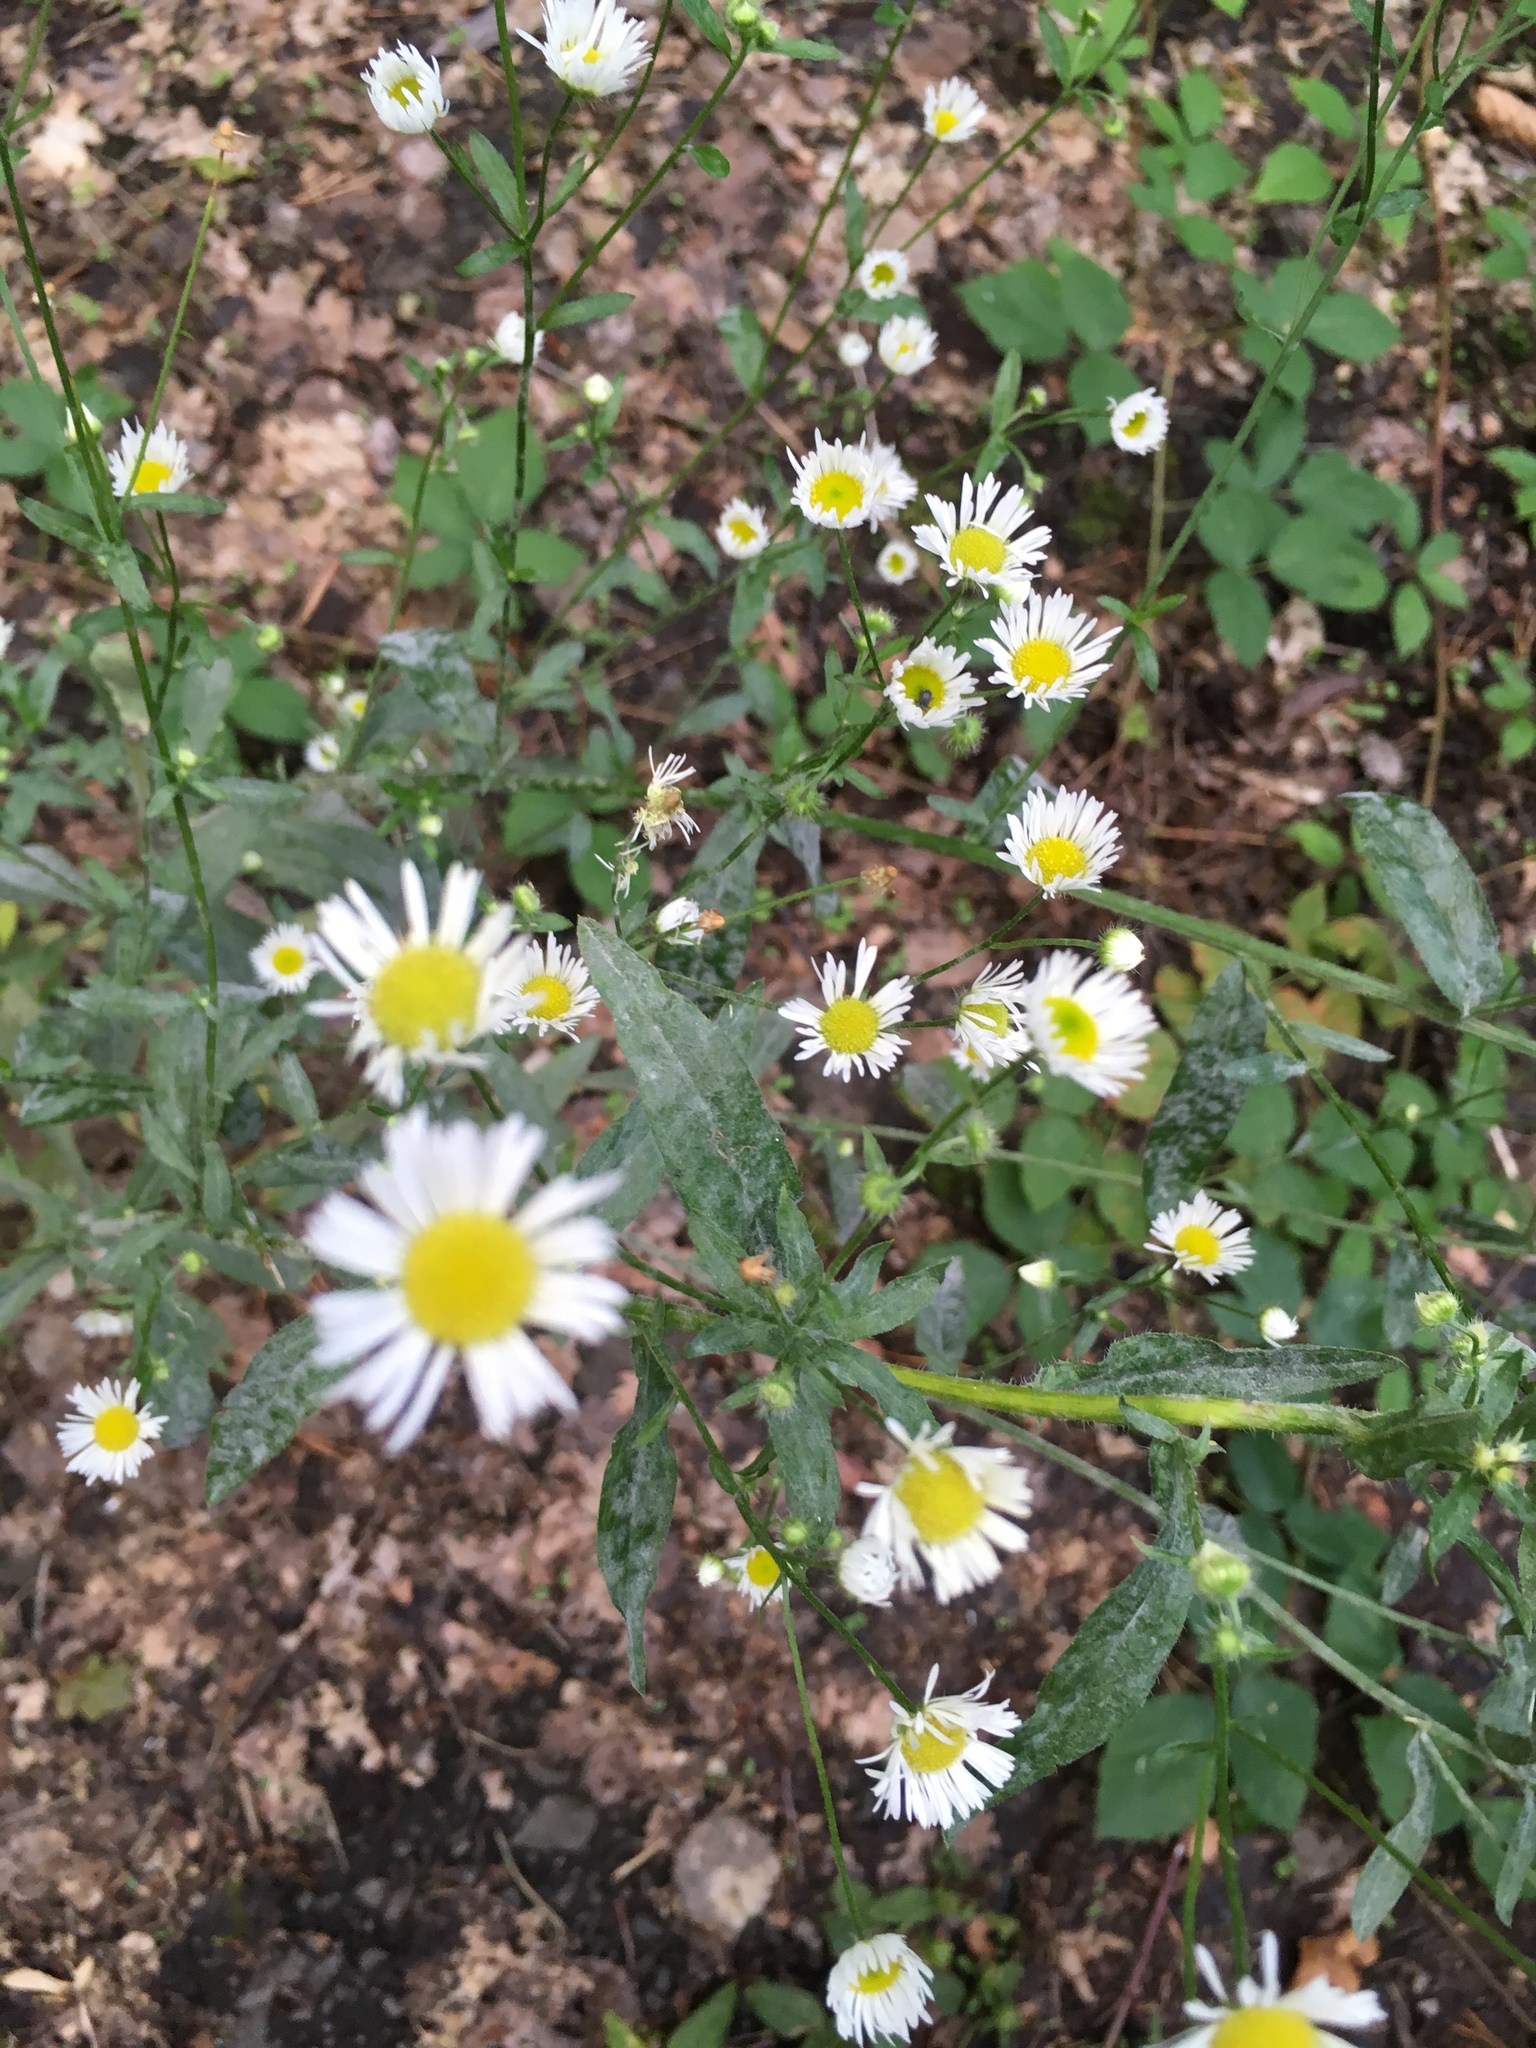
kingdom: Plantae
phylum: Tracheophyta
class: Magnoliopsida
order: Asterales
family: Asteraceae
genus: Erigeron
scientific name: Erigeron annuus
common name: Tall fleabane
